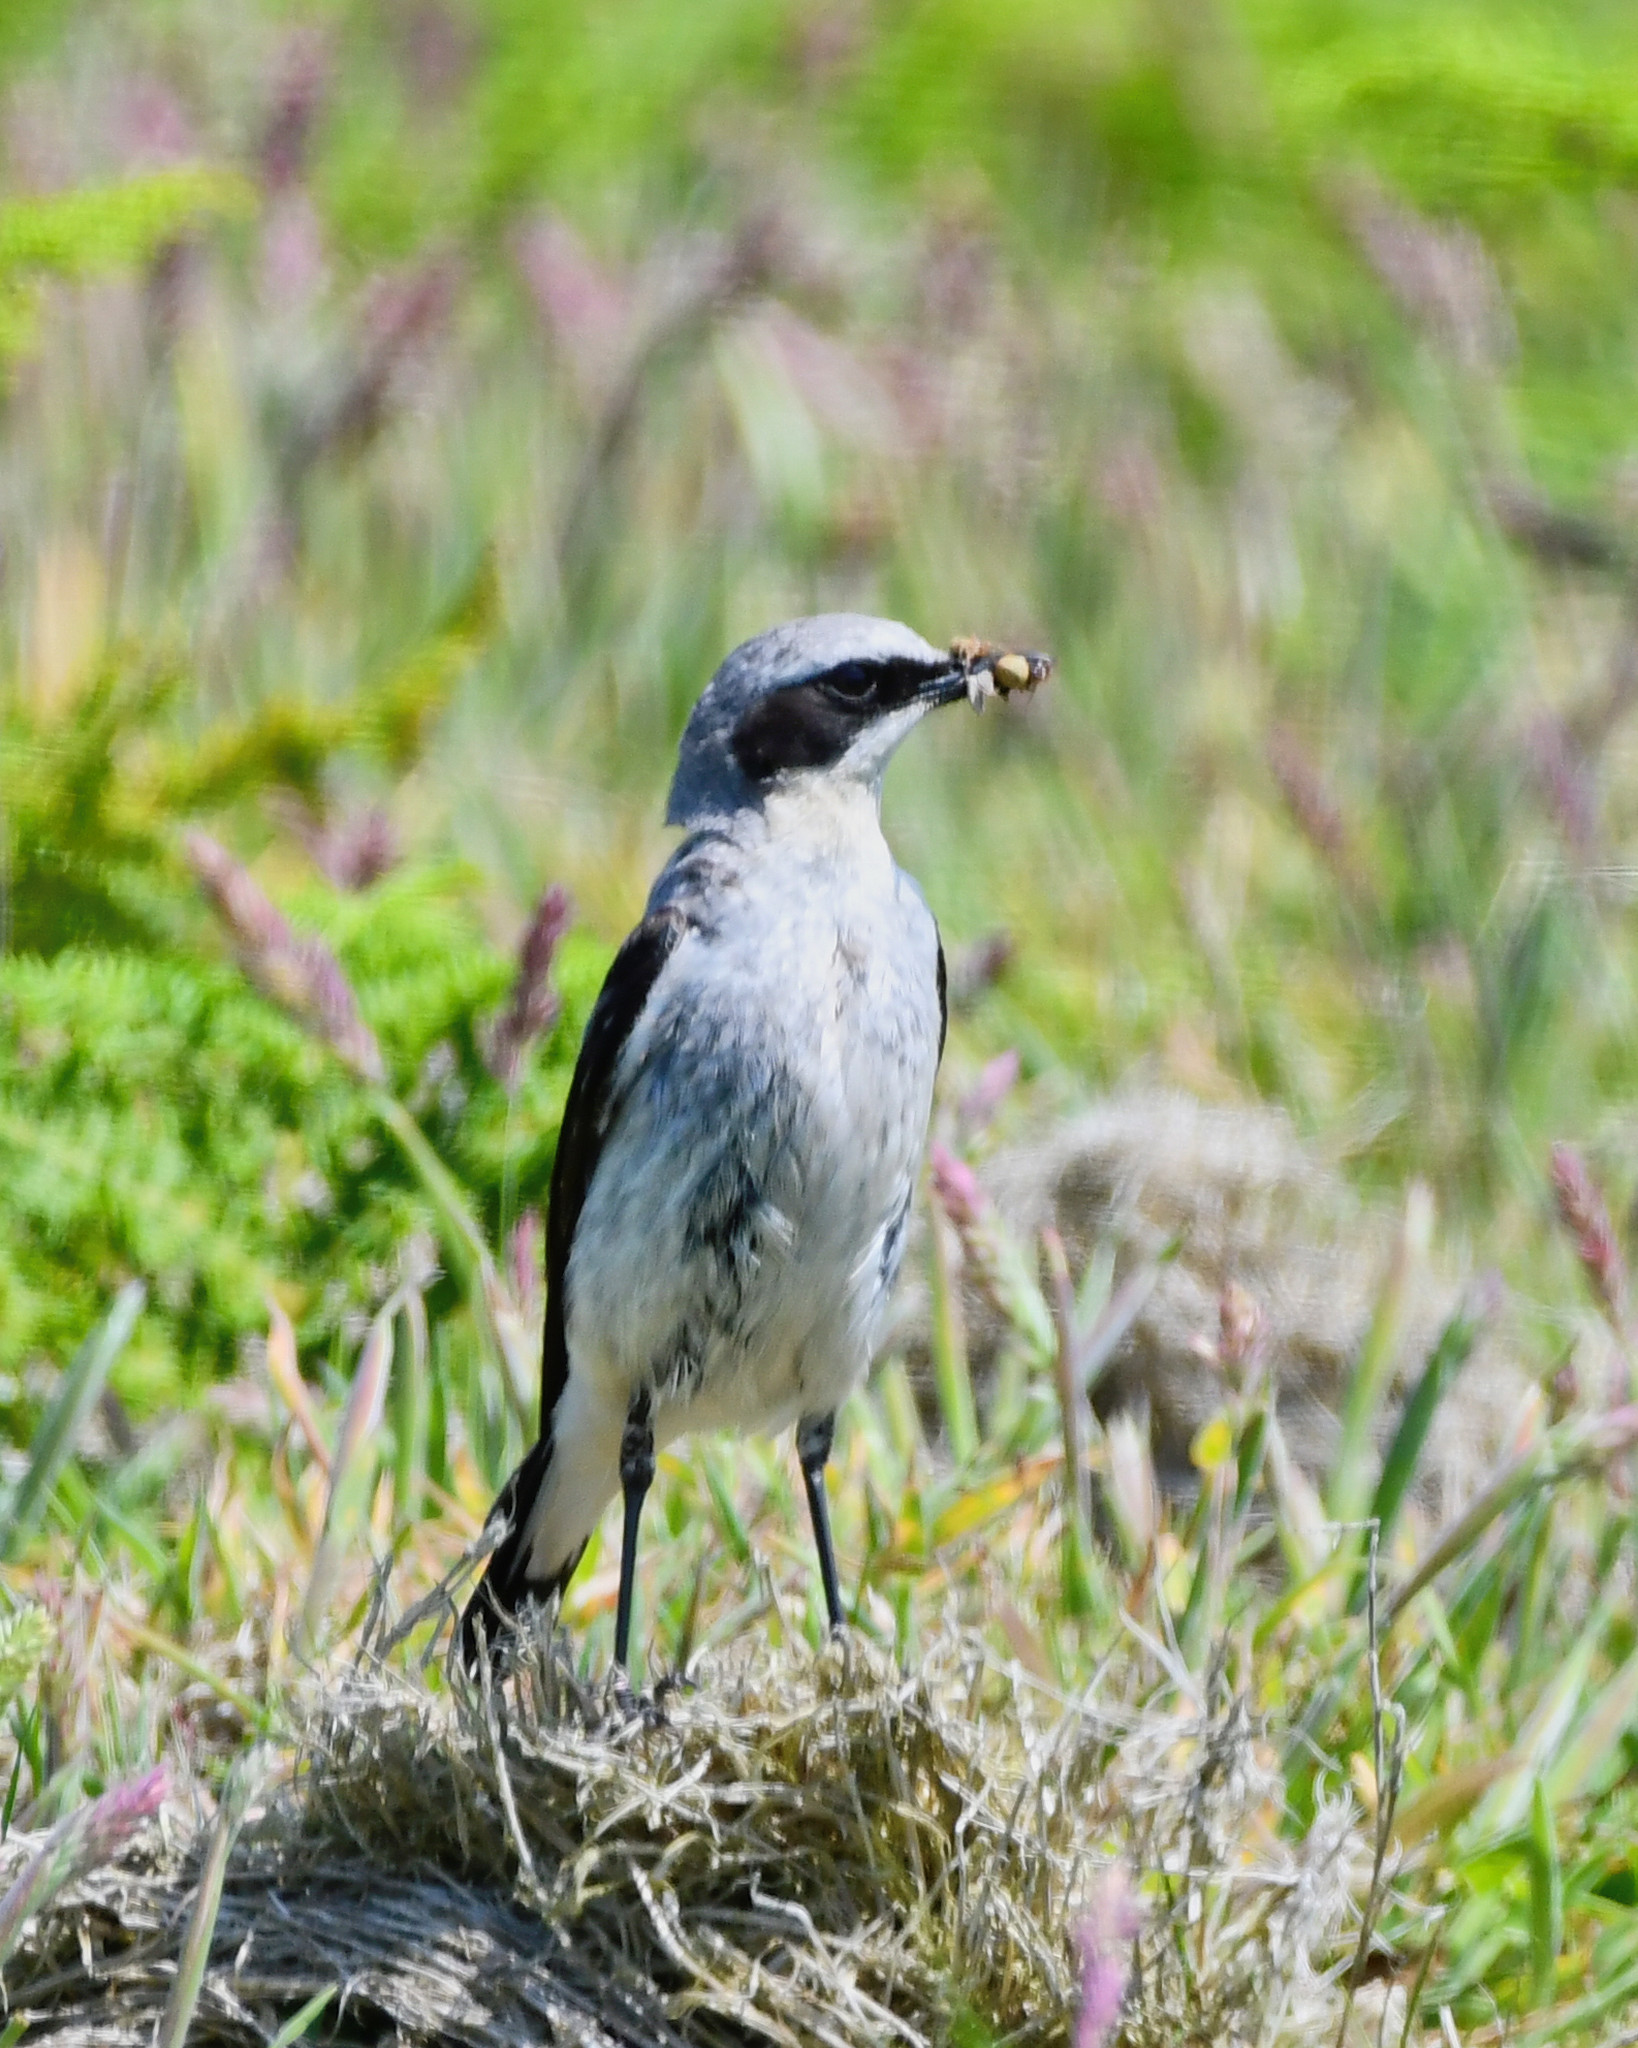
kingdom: Animalia
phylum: Chordata
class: Aves
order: Passeriformes
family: Muscicapidae
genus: Oenanthe
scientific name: Oenanthe oenanthe
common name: Northern wheatear
